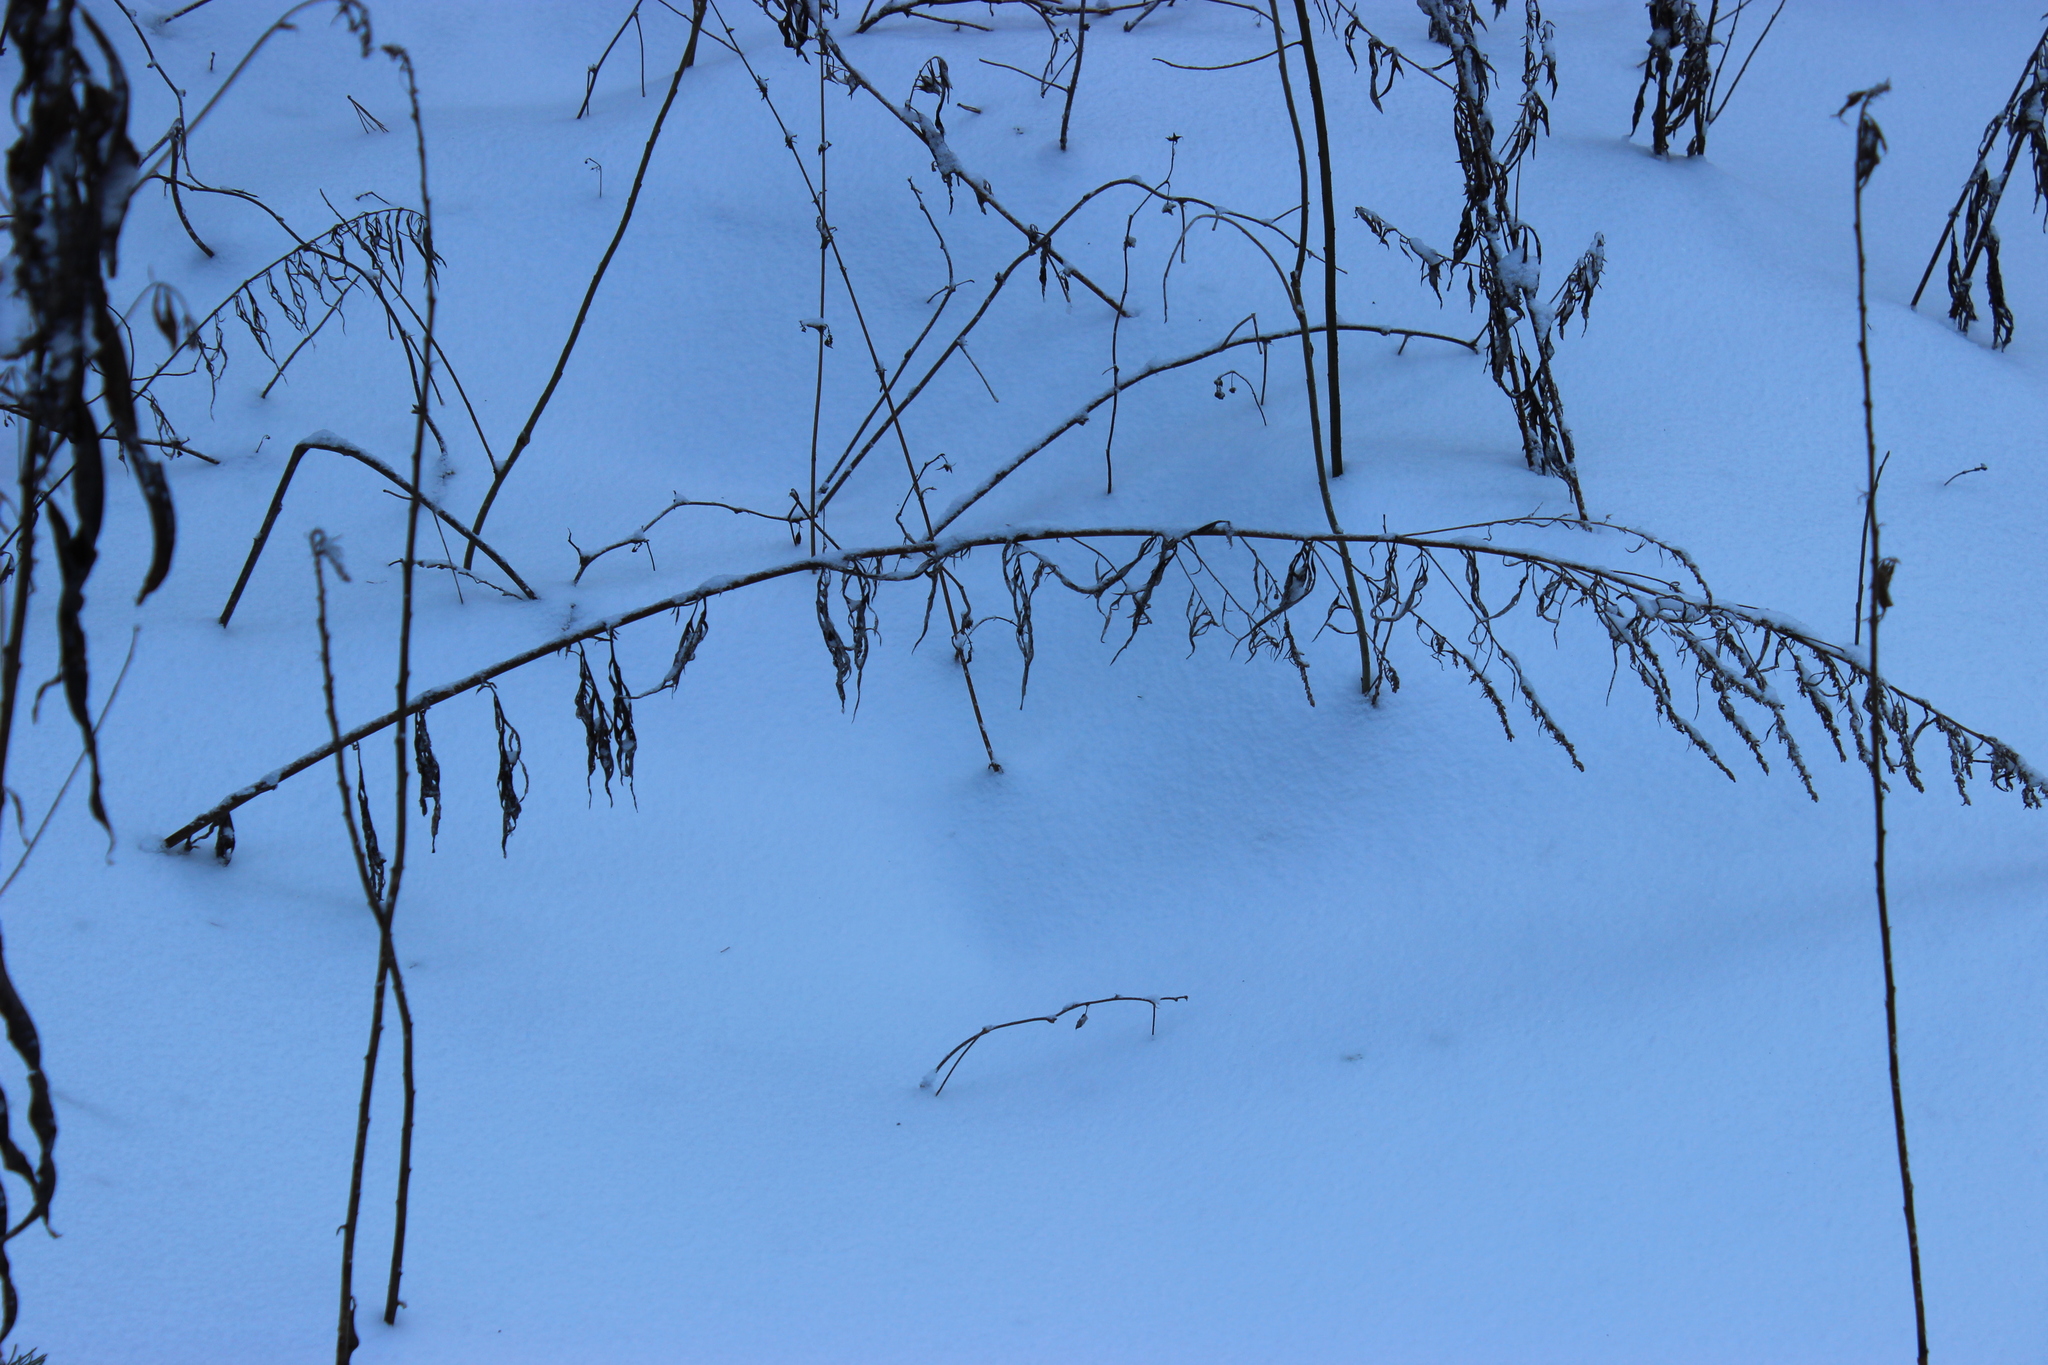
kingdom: Plantae
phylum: Tracheophyta
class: Magnoliopsida
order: Asterales
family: Asteraceae
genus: Artemisia
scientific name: Artemisia vulgaris
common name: Mugwort
